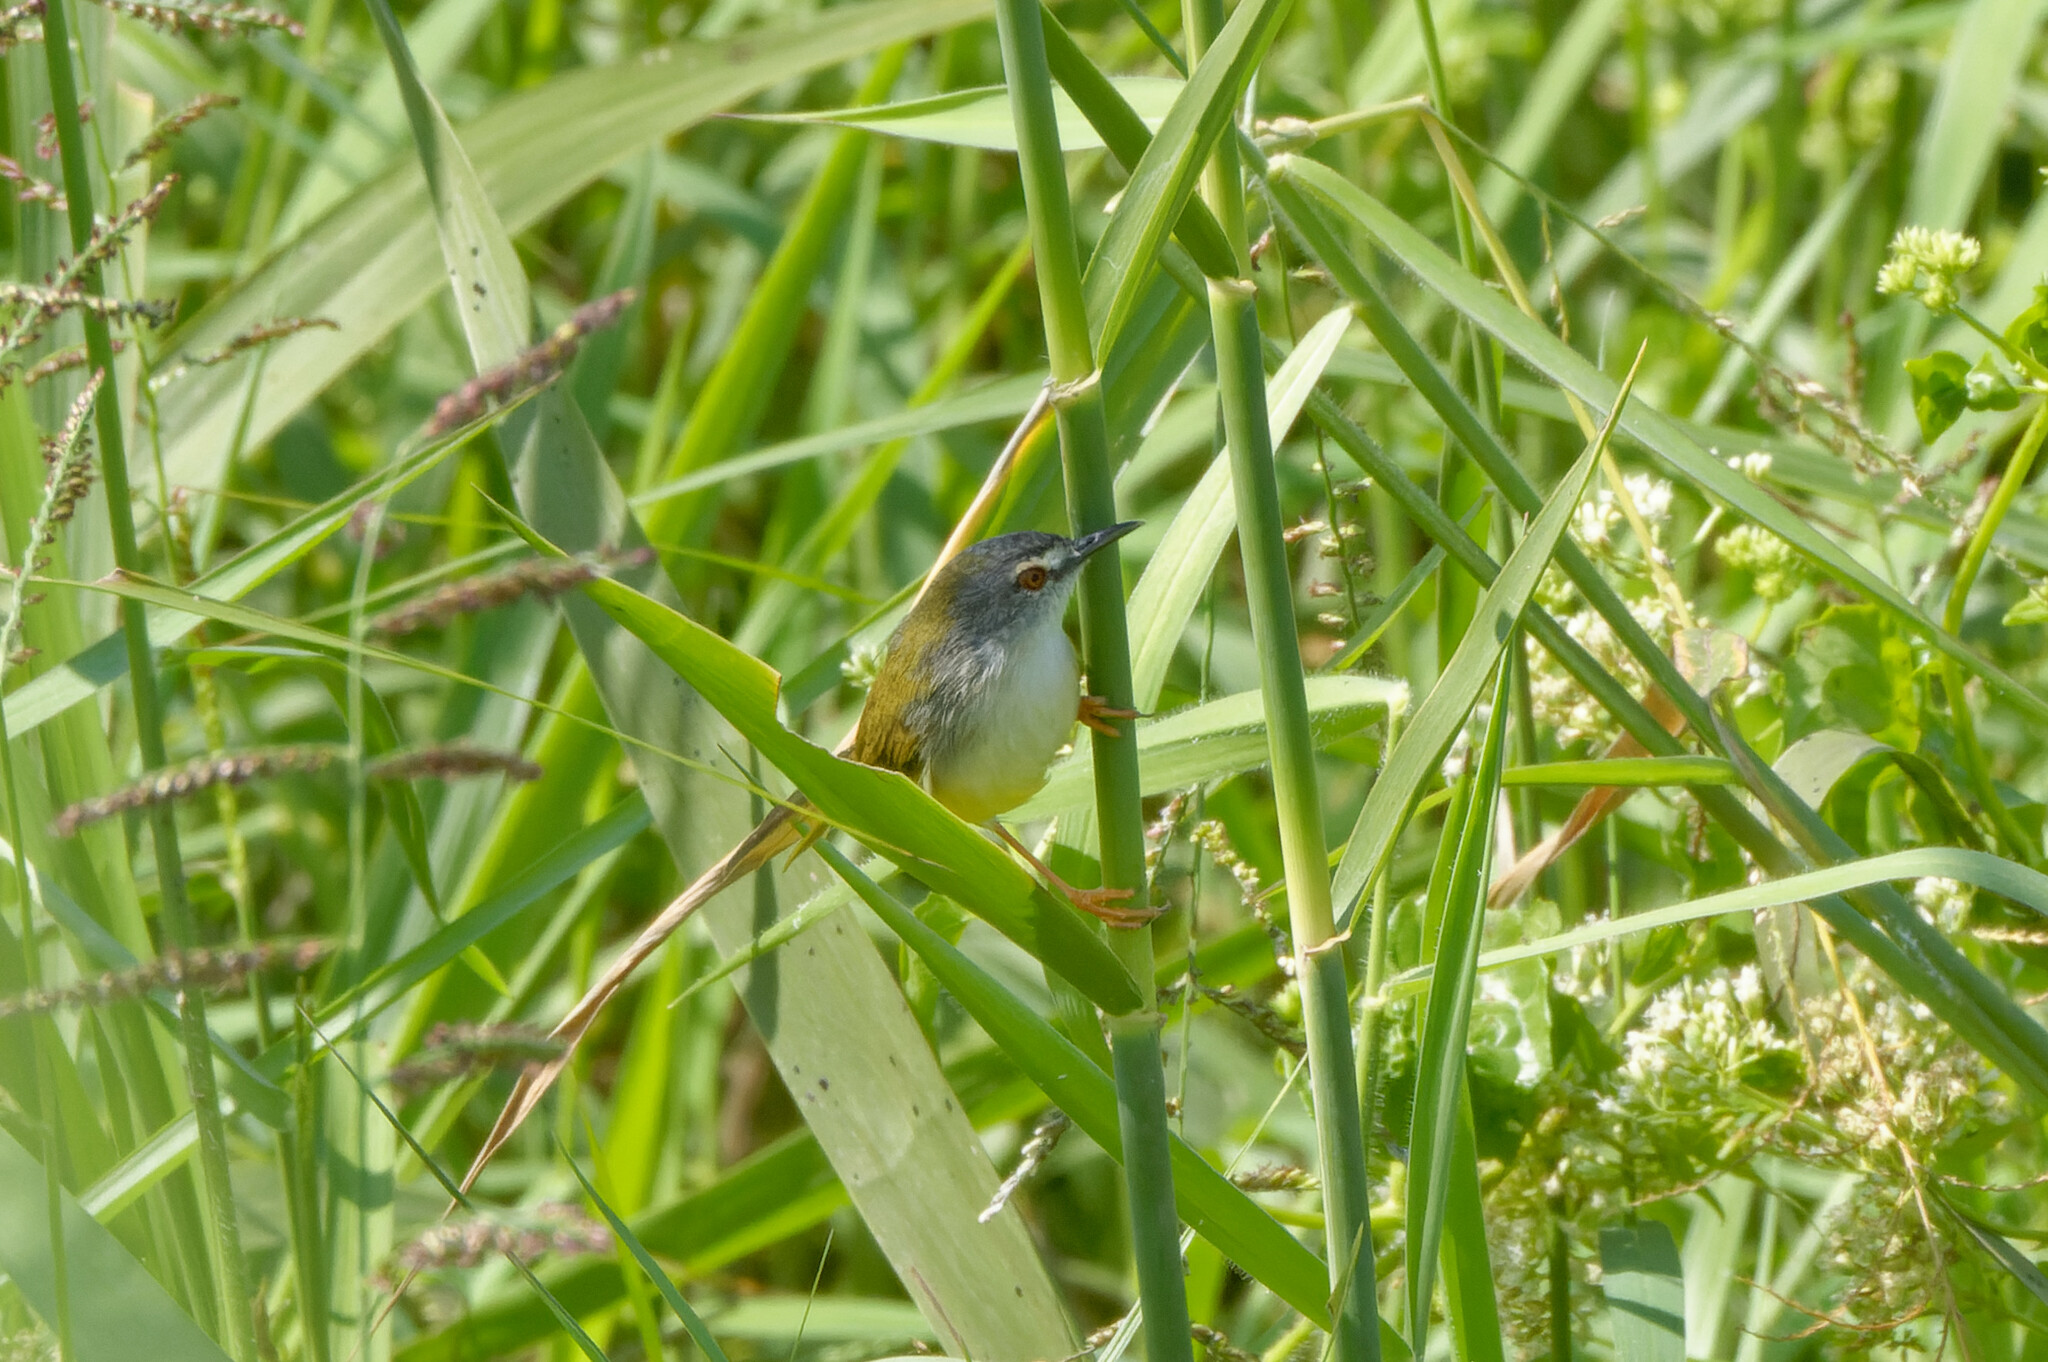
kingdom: Animalia
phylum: Chordata
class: Aves
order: Passeriformes
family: Cisticolidae
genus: Prinia
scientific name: Prinia flaviventris
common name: Yellow-bellied prinia
